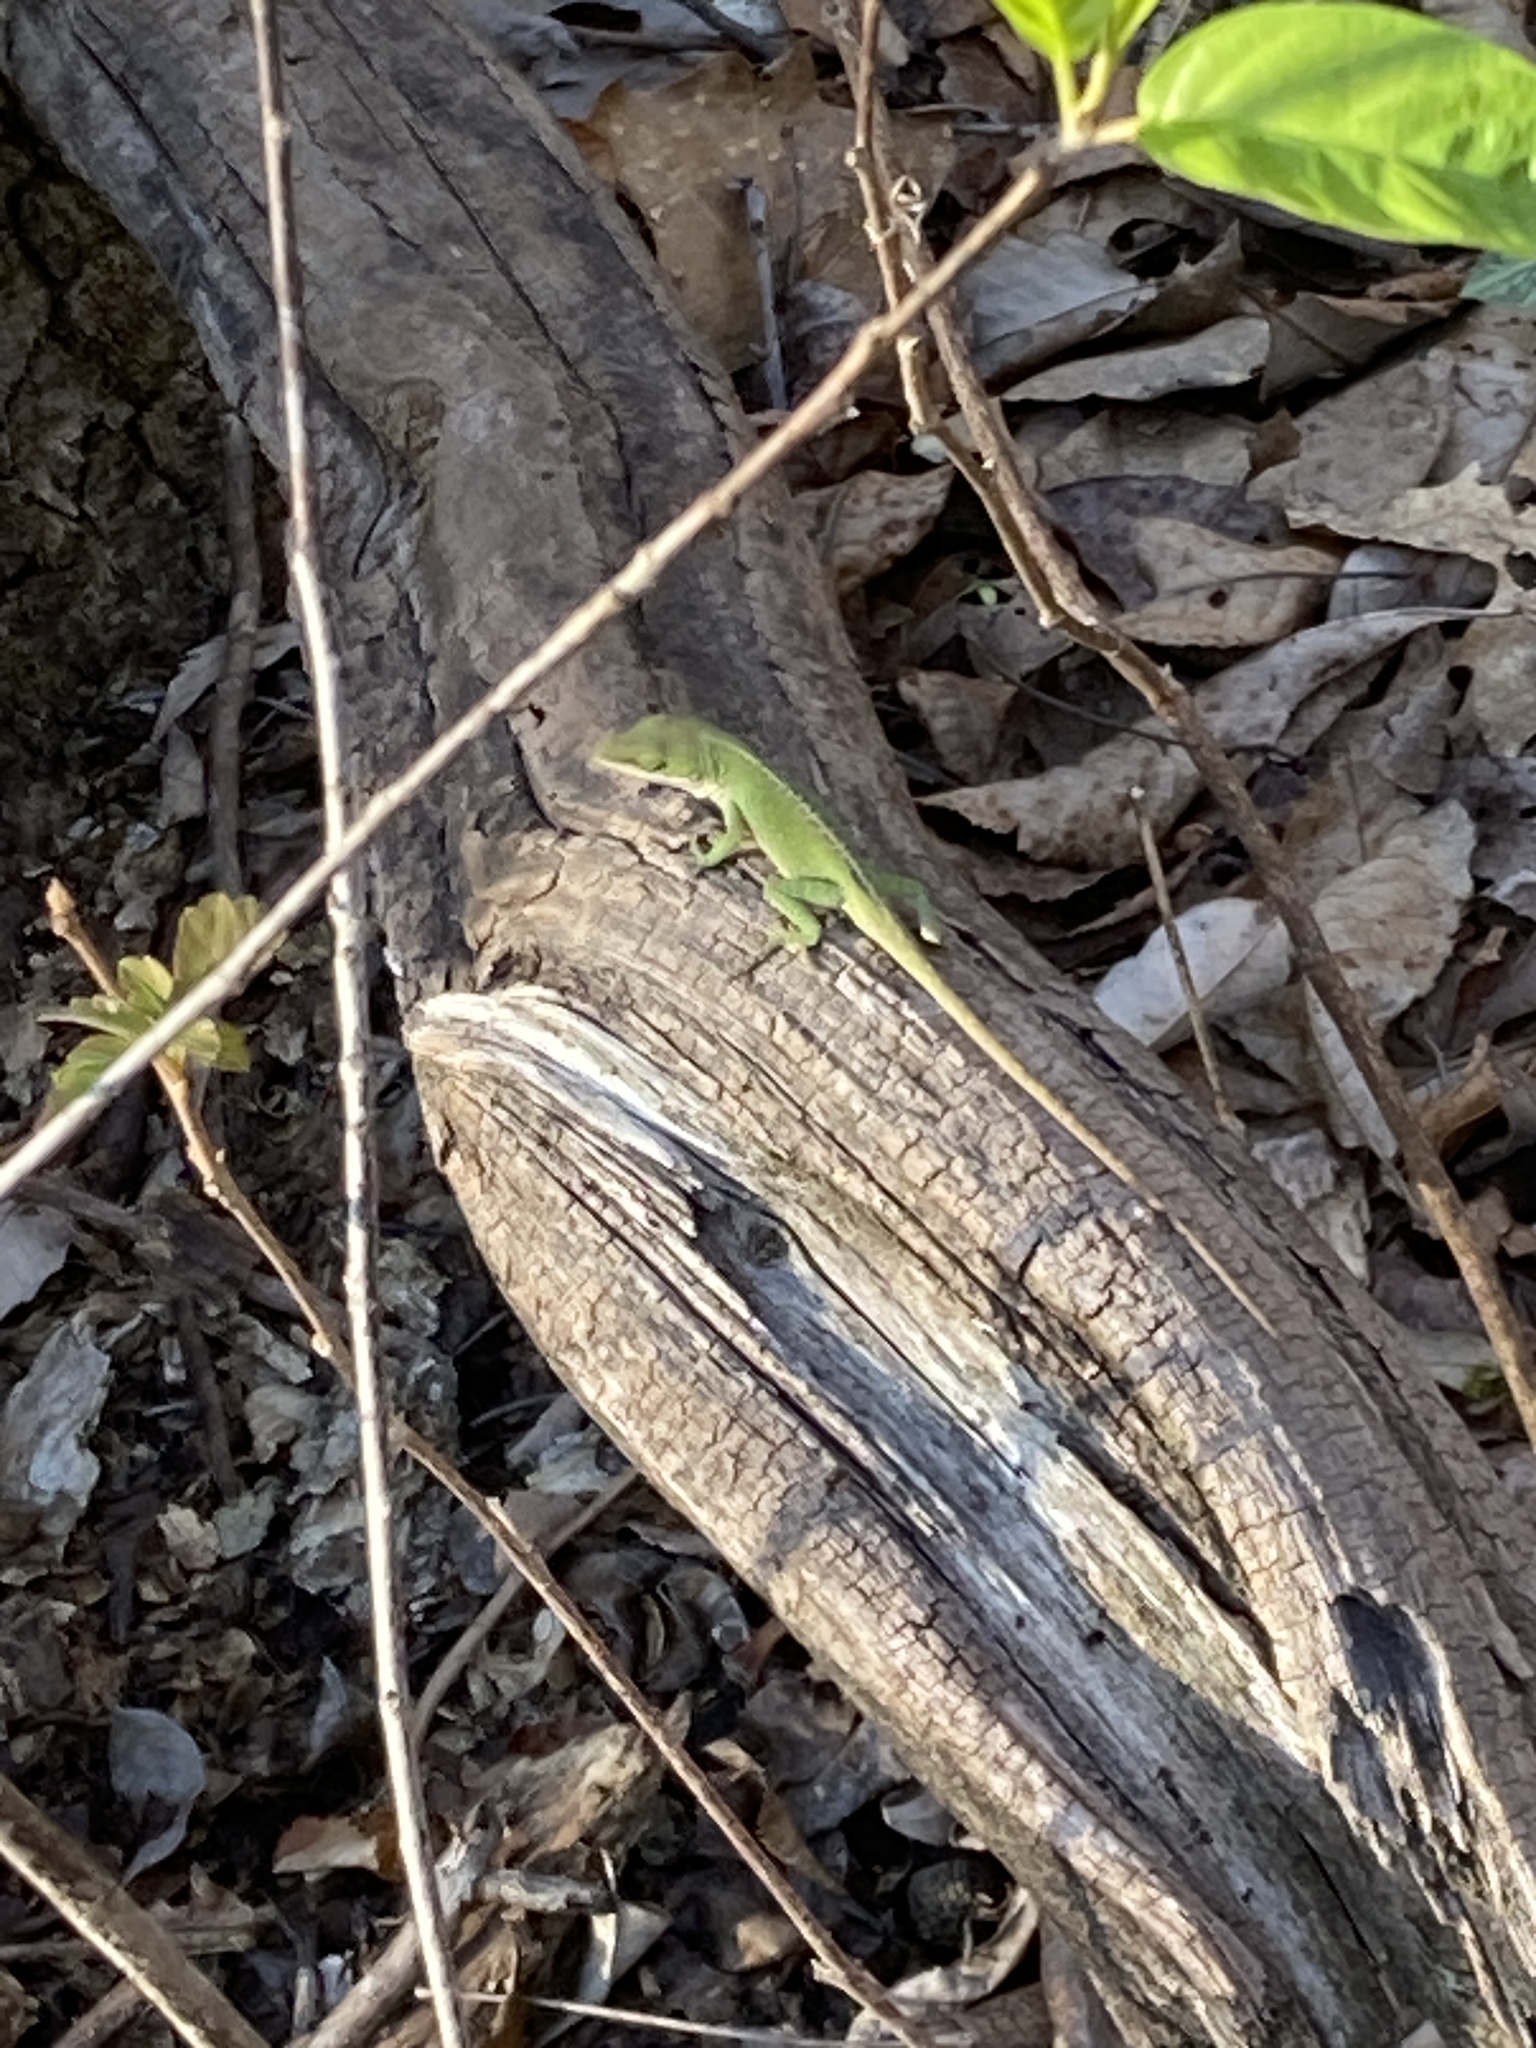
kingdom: Animalia
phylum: Chordata
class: Squamata
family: Dactyloidae
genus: Anolis
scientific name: Anolis carolinensis
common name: Green anole
